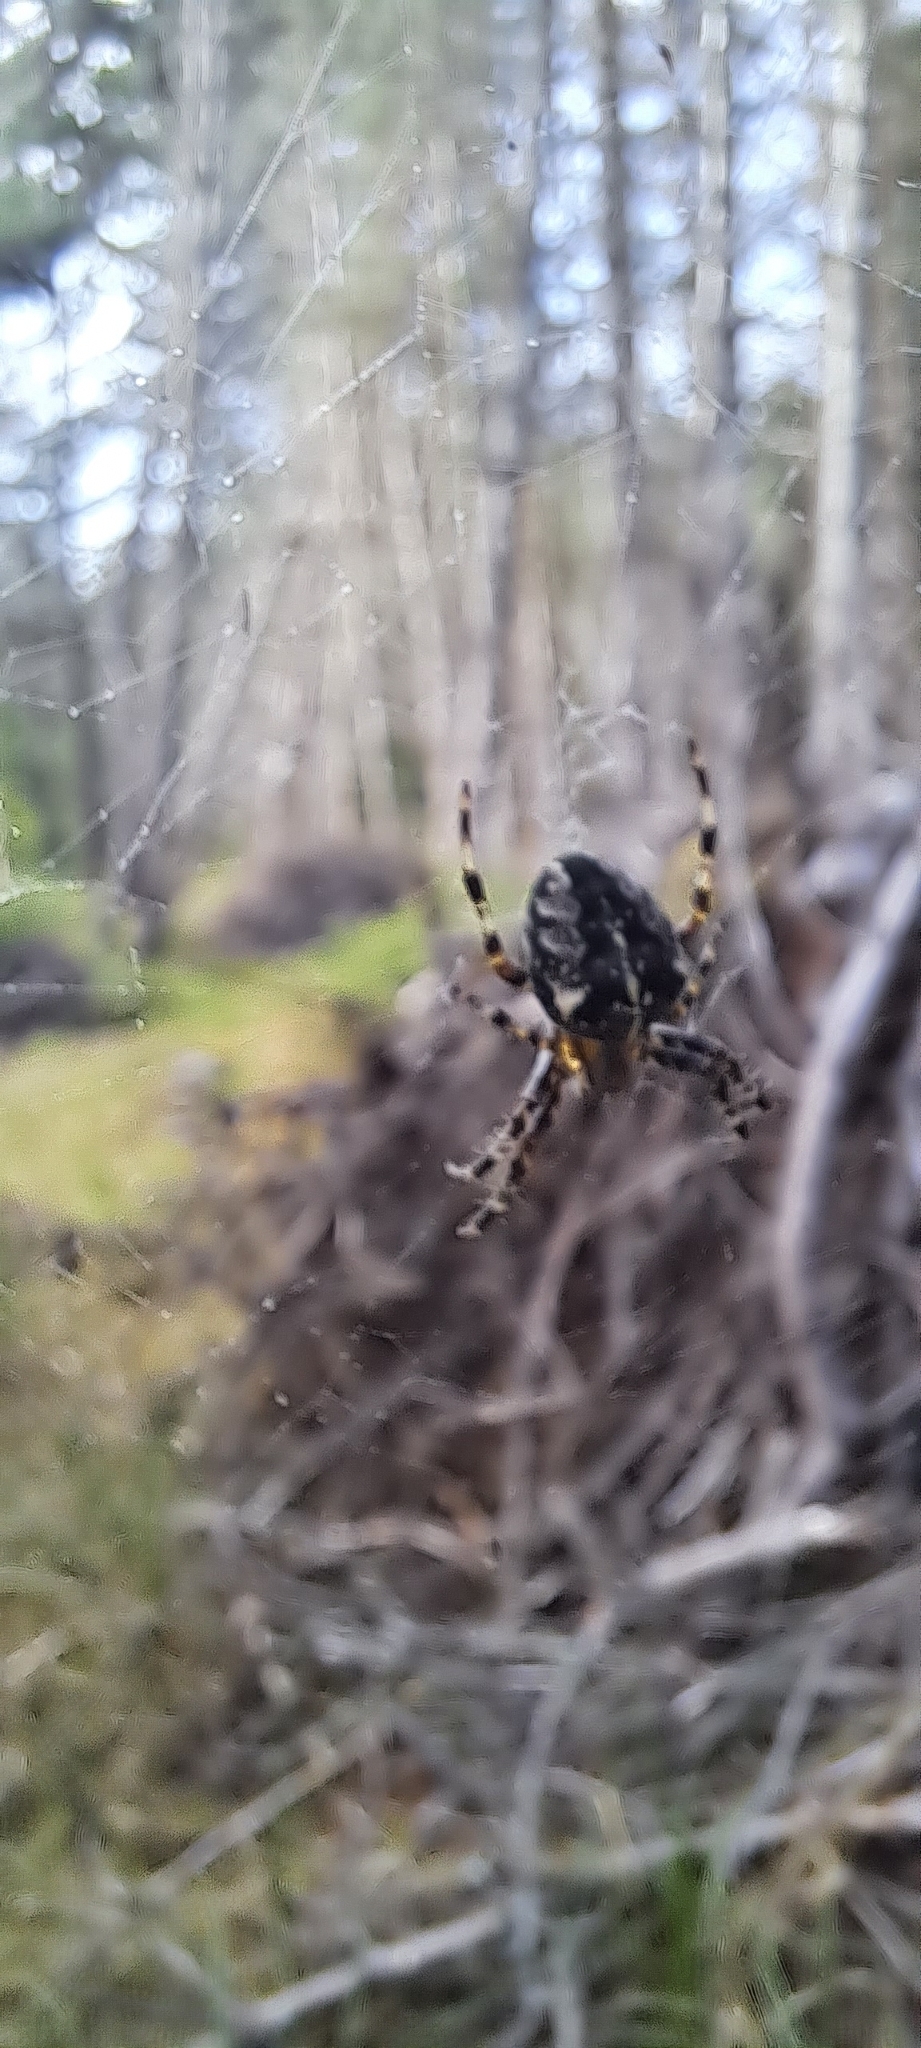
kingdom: Animalia
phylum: Arthropoda
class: Arachnida
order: Araneae
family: Araneidae
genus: Araneus
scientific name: Araneus diadematus
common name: Cross orbweaver
